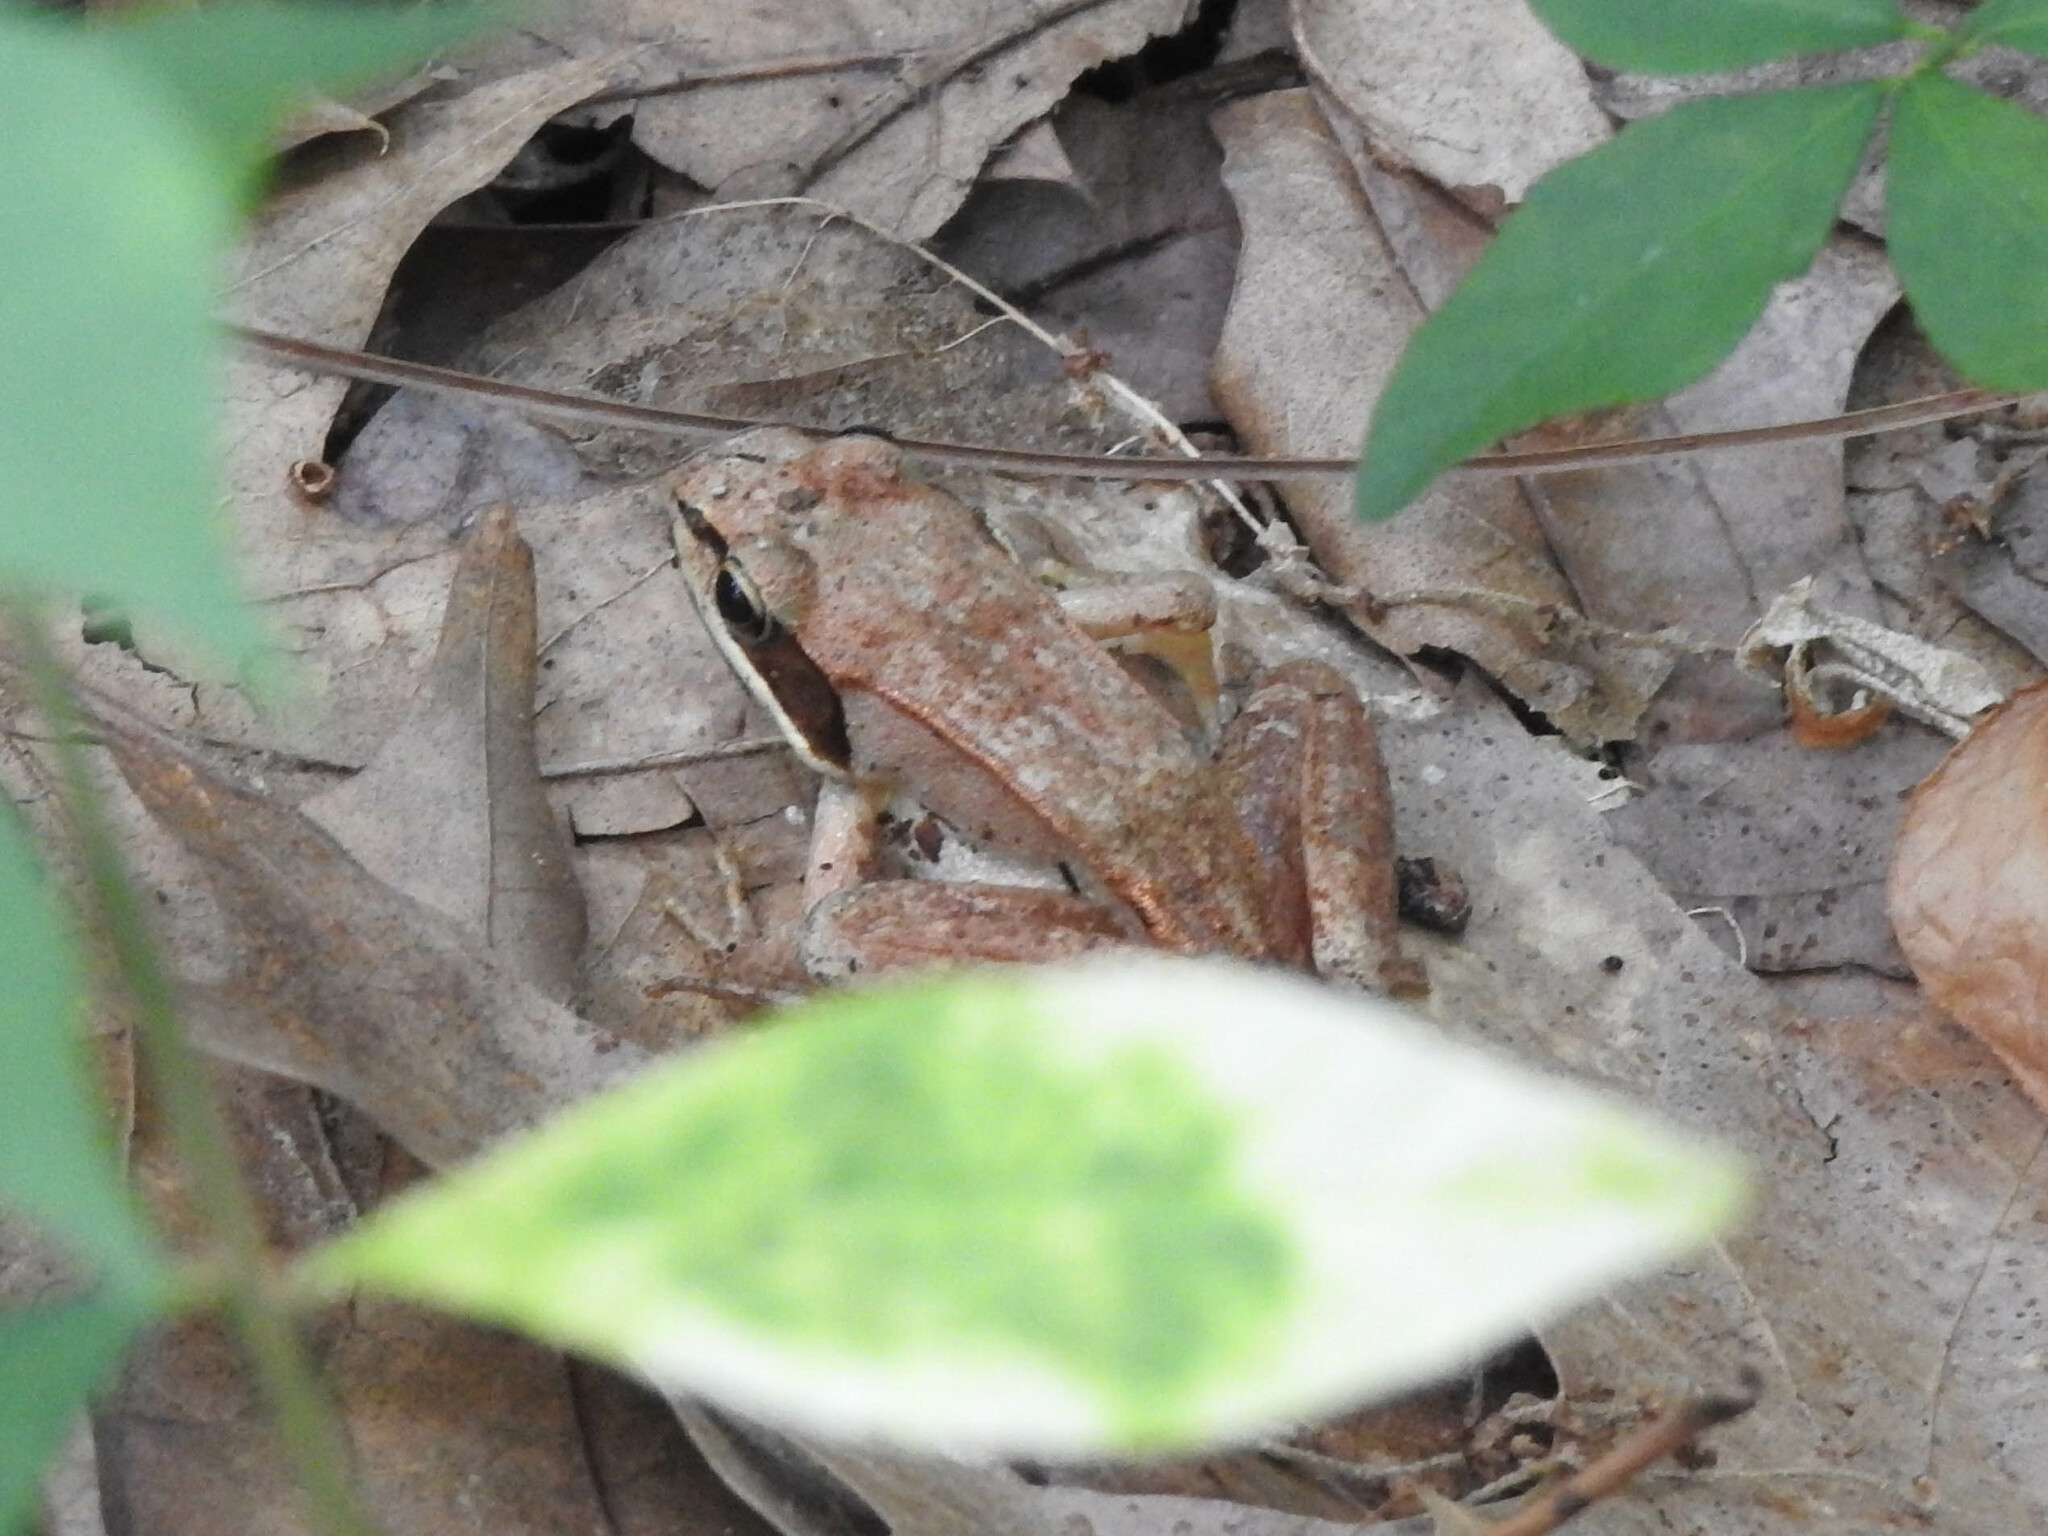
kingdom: Animalia
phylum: Chordata
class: Amphibia
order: Anura
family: Ranidae
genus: Lithobates
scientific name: Lithobates sylvaticus
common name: Wood frog
